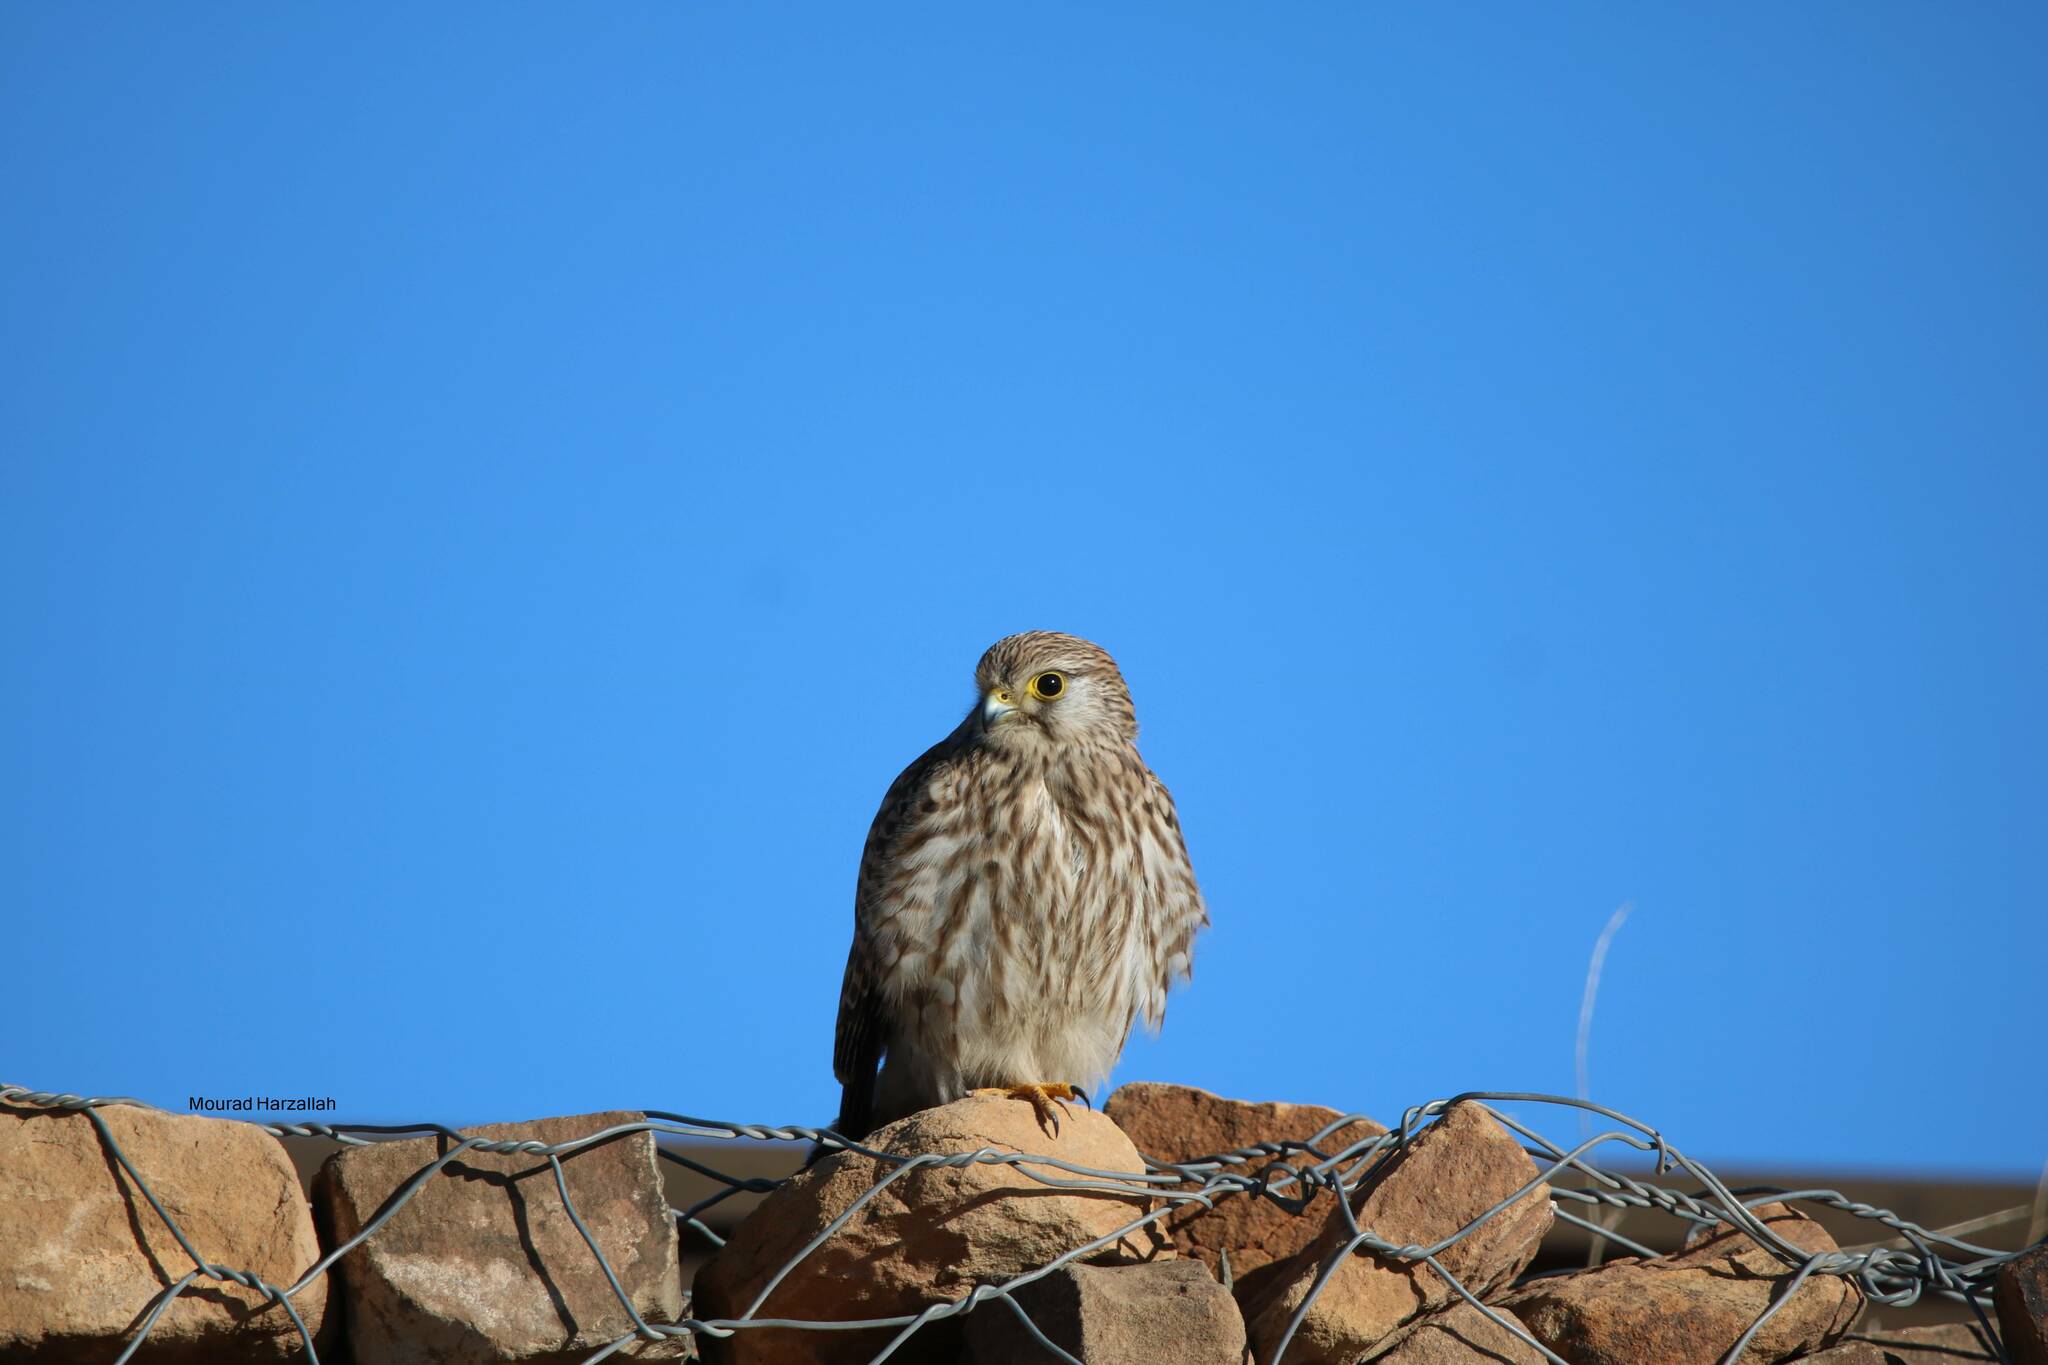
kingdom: Animalia
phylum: Chordata
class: Aves
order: Falconiformes
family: Falconidae
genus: Falco
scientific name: Falco tinnunculus
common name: Common kestrel
